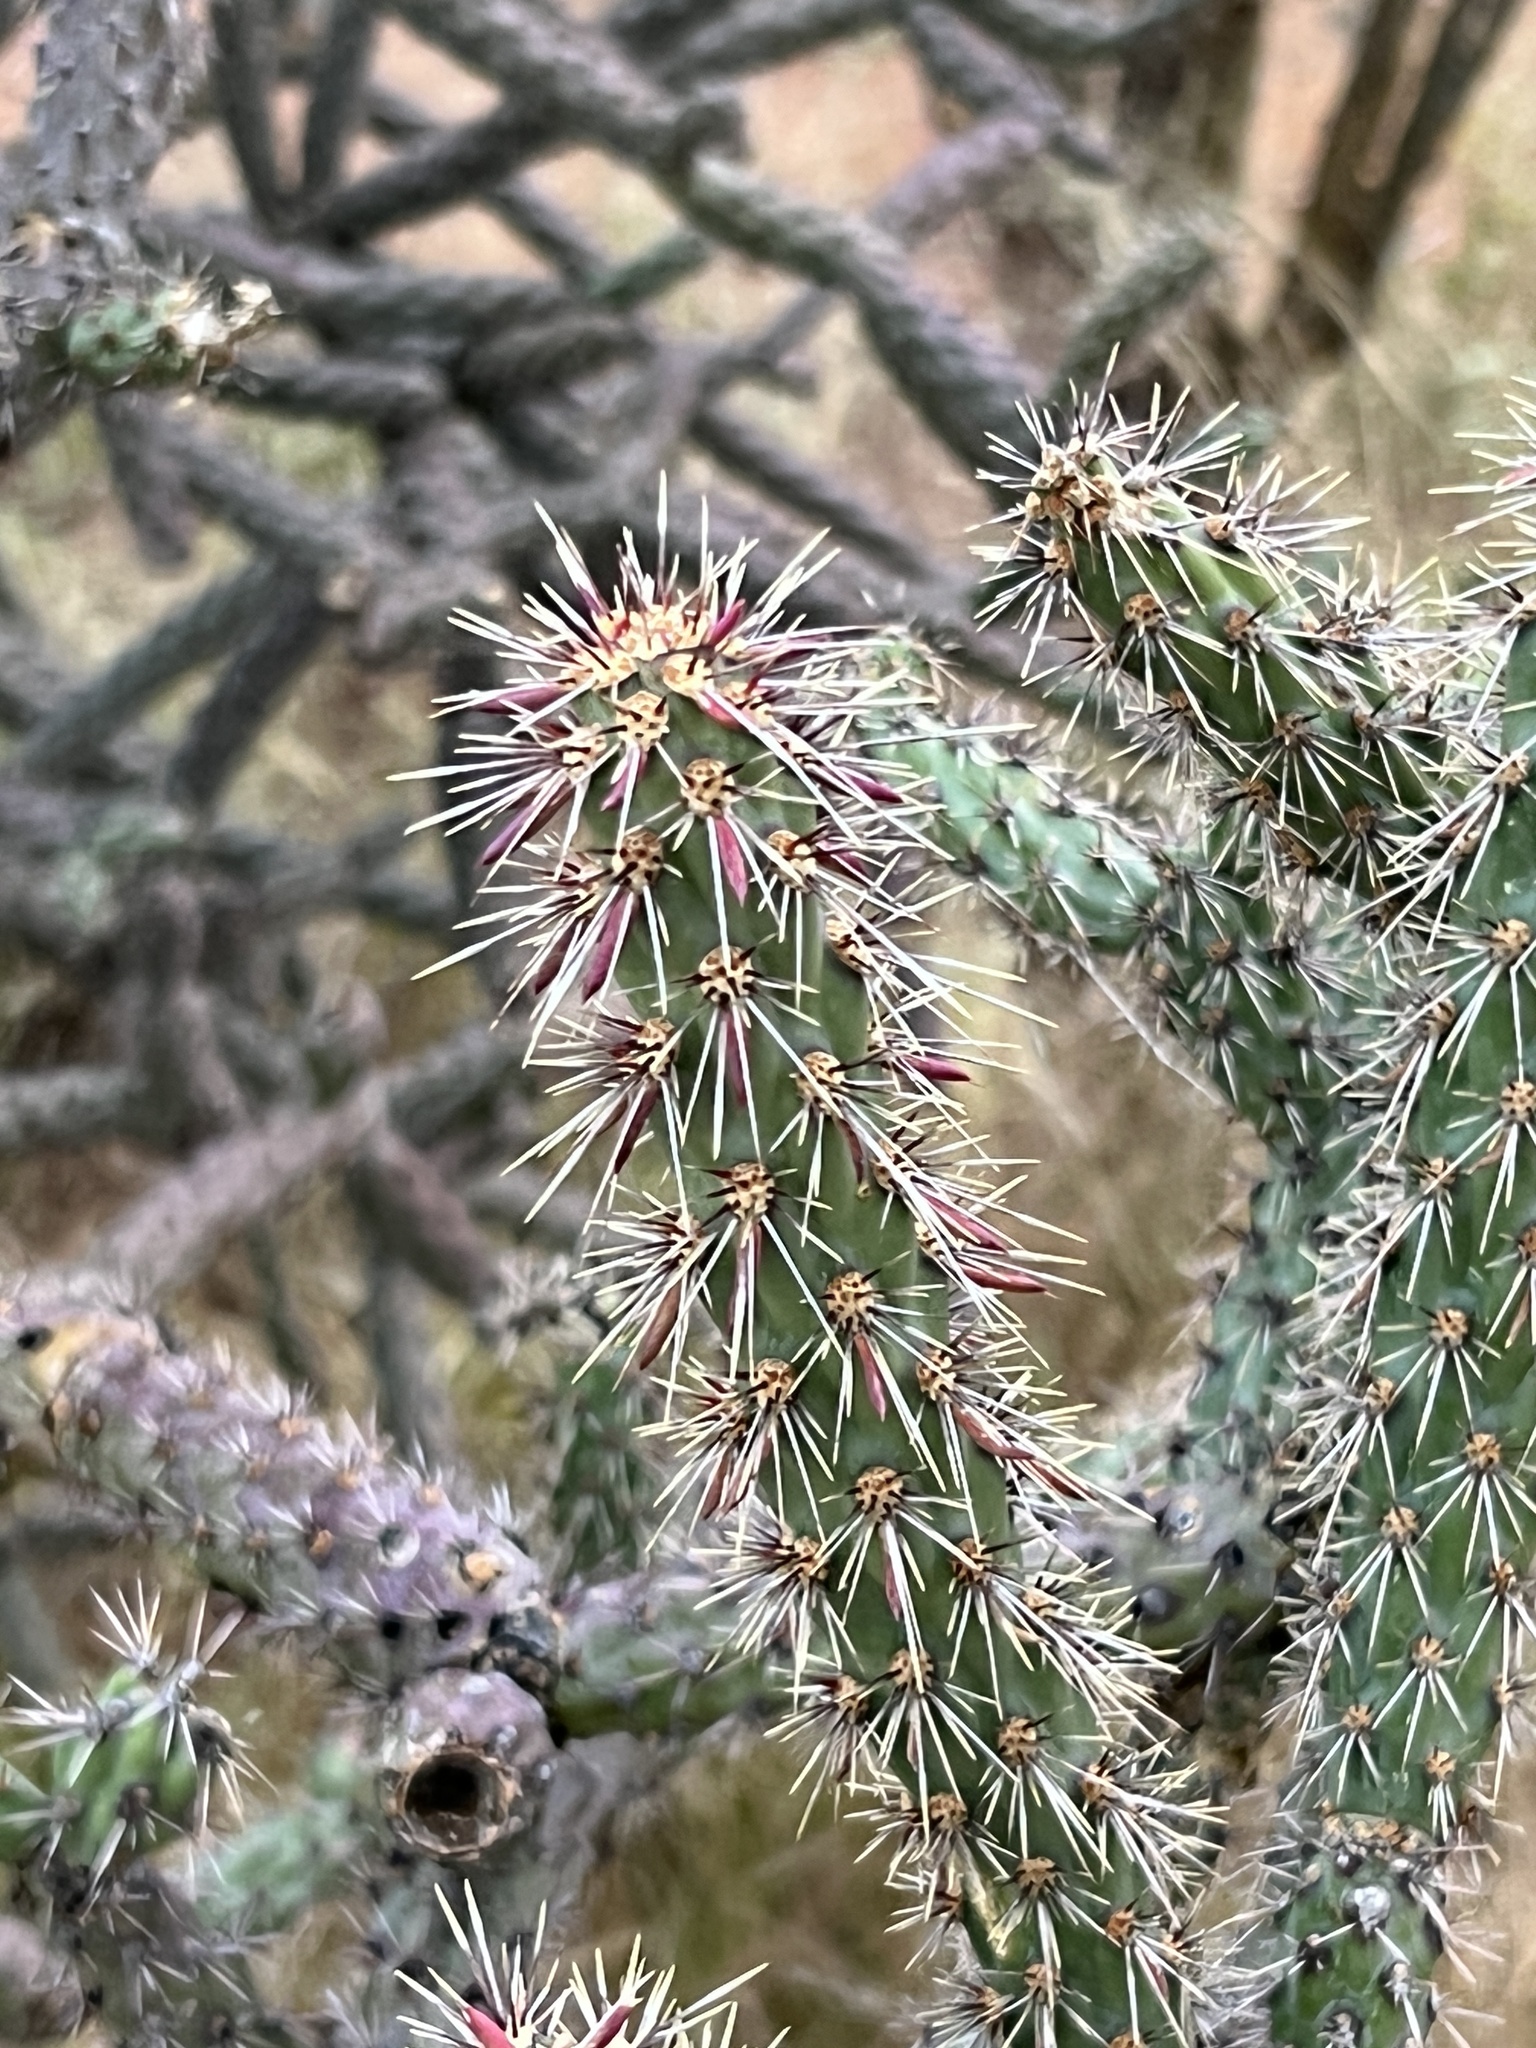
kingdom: Plantae
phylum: Tracheophyta
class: Magnoliopsida
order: Caryophyllales
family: Cactaceae
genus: Cylindropuntia
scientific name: Cylindropuntia thurberi
